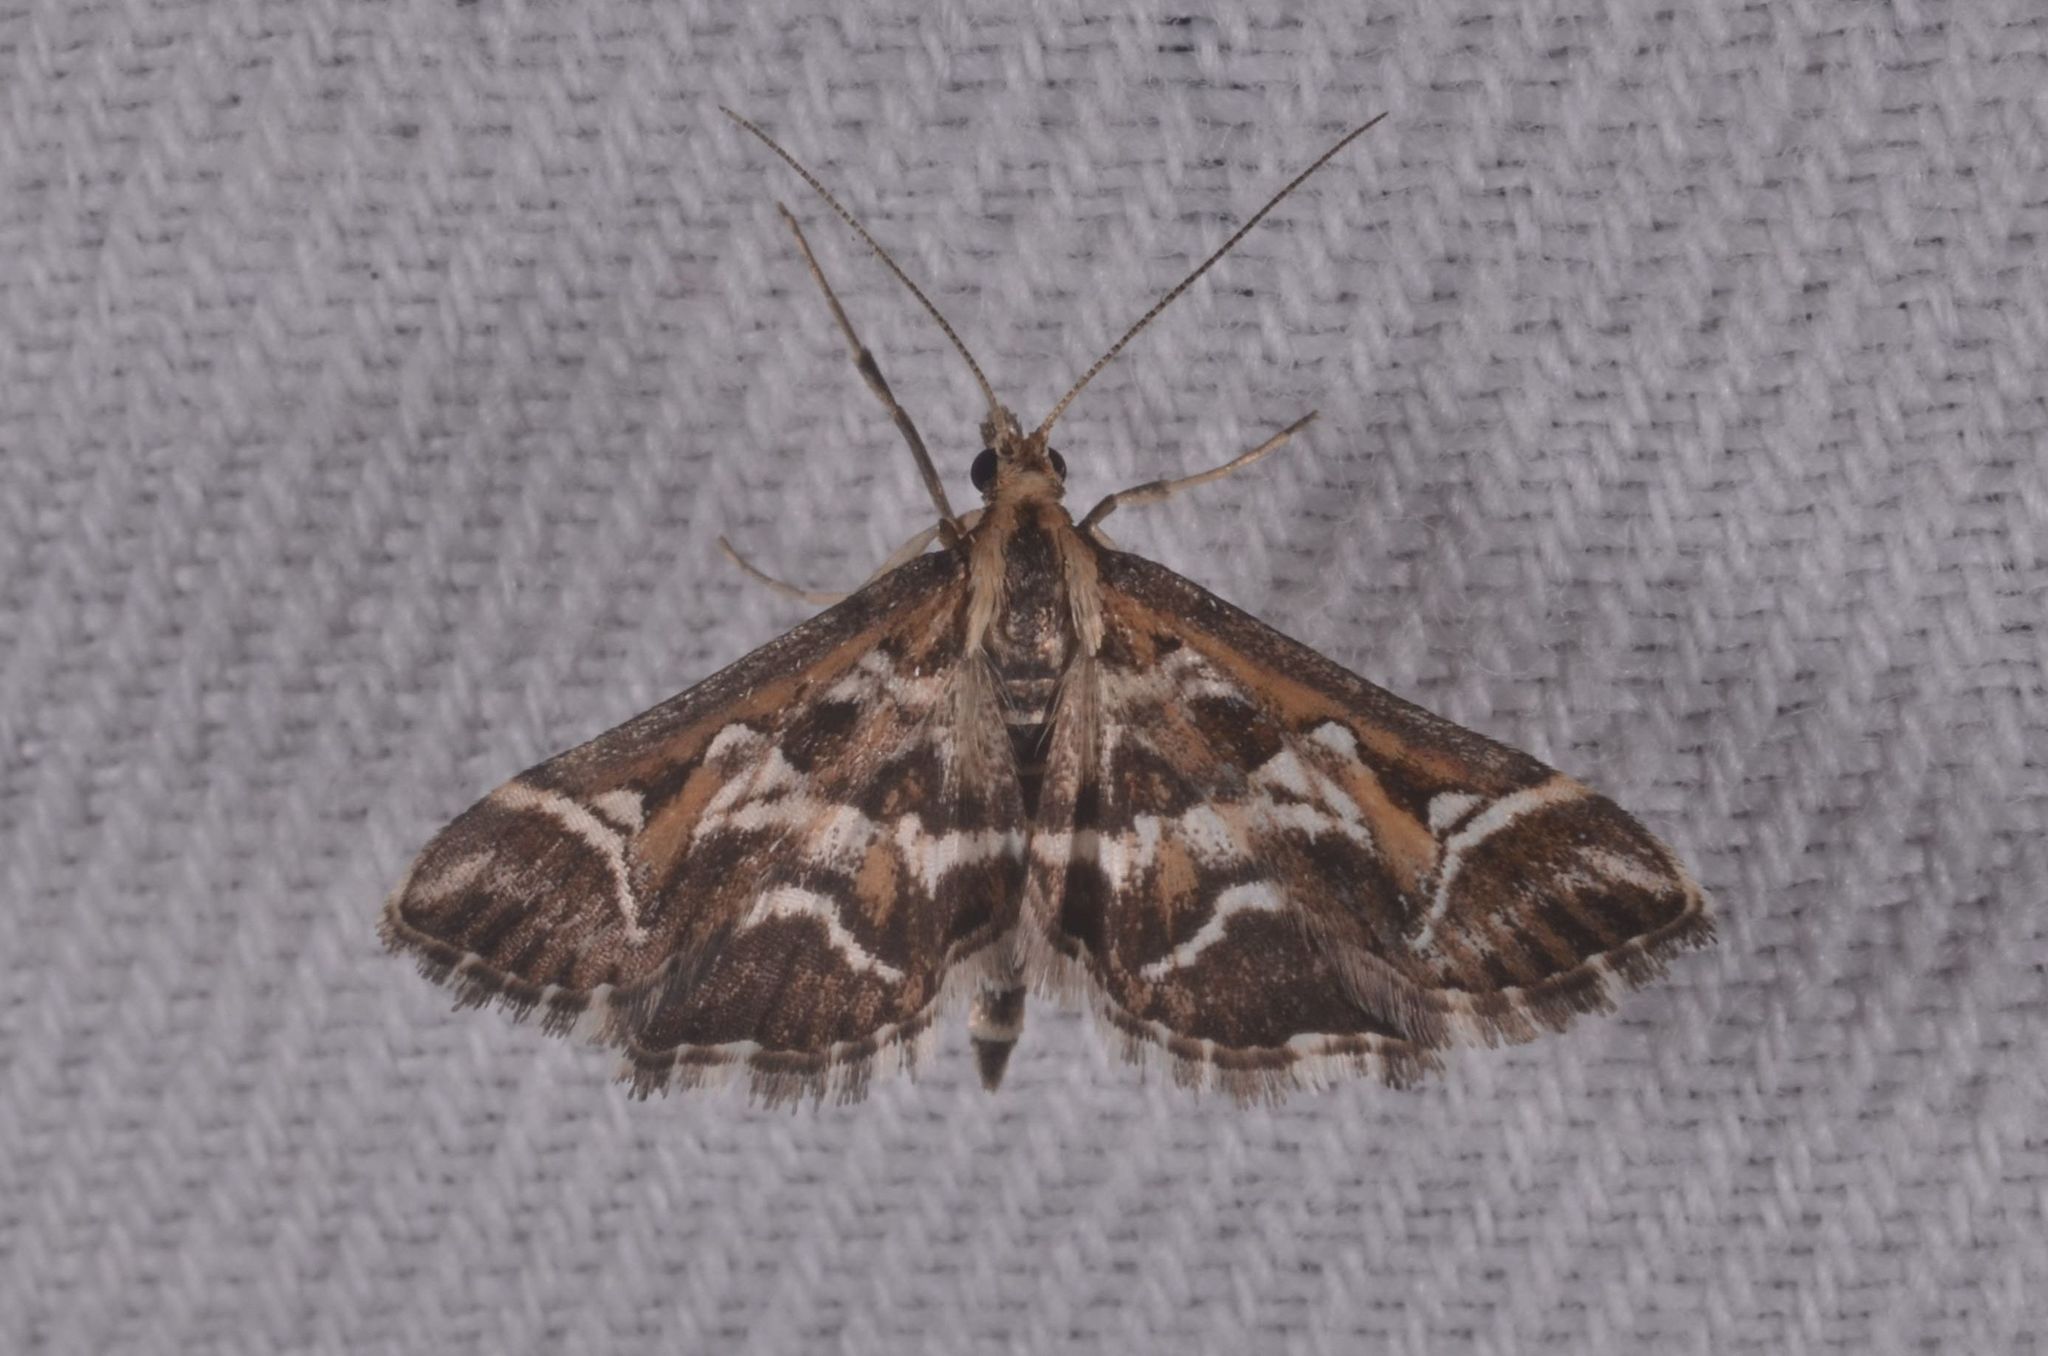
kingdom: Animalia
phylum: Arthropoda
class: Insecta
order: Lepidoptera
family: Crambidae
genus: Diasemia
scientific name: Diasemia reticularis
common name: Lettered china-mark
